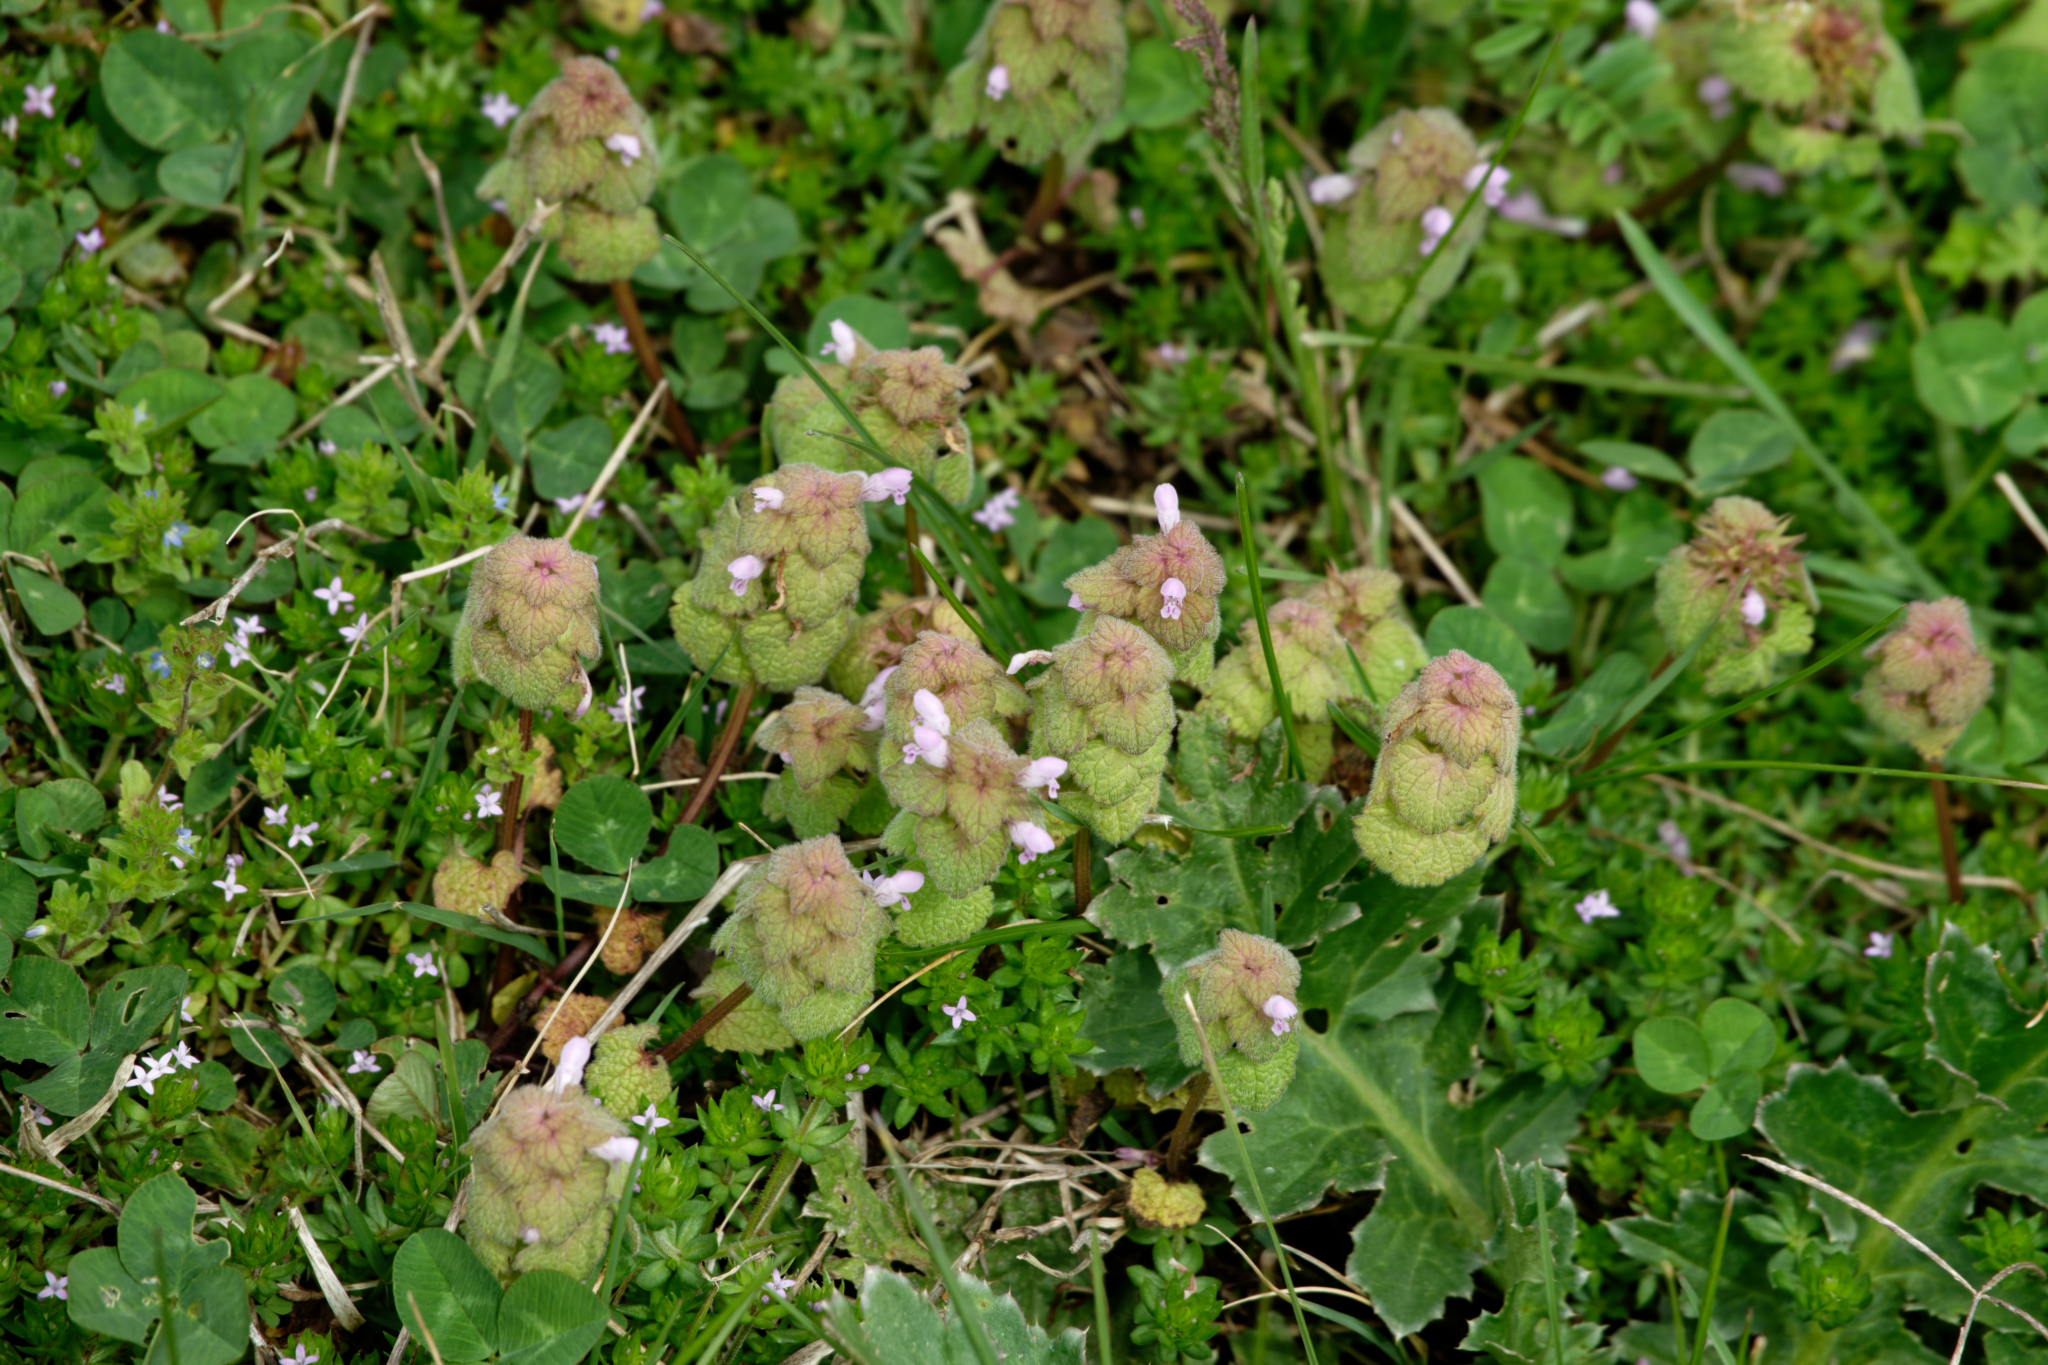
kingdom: Plantae
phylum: Tracheophyta
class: Magnoliopsida
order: Lamiales
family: Lamiaceae
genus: Lamium
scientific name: Lamium purpureum
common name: Red dead-nettle
